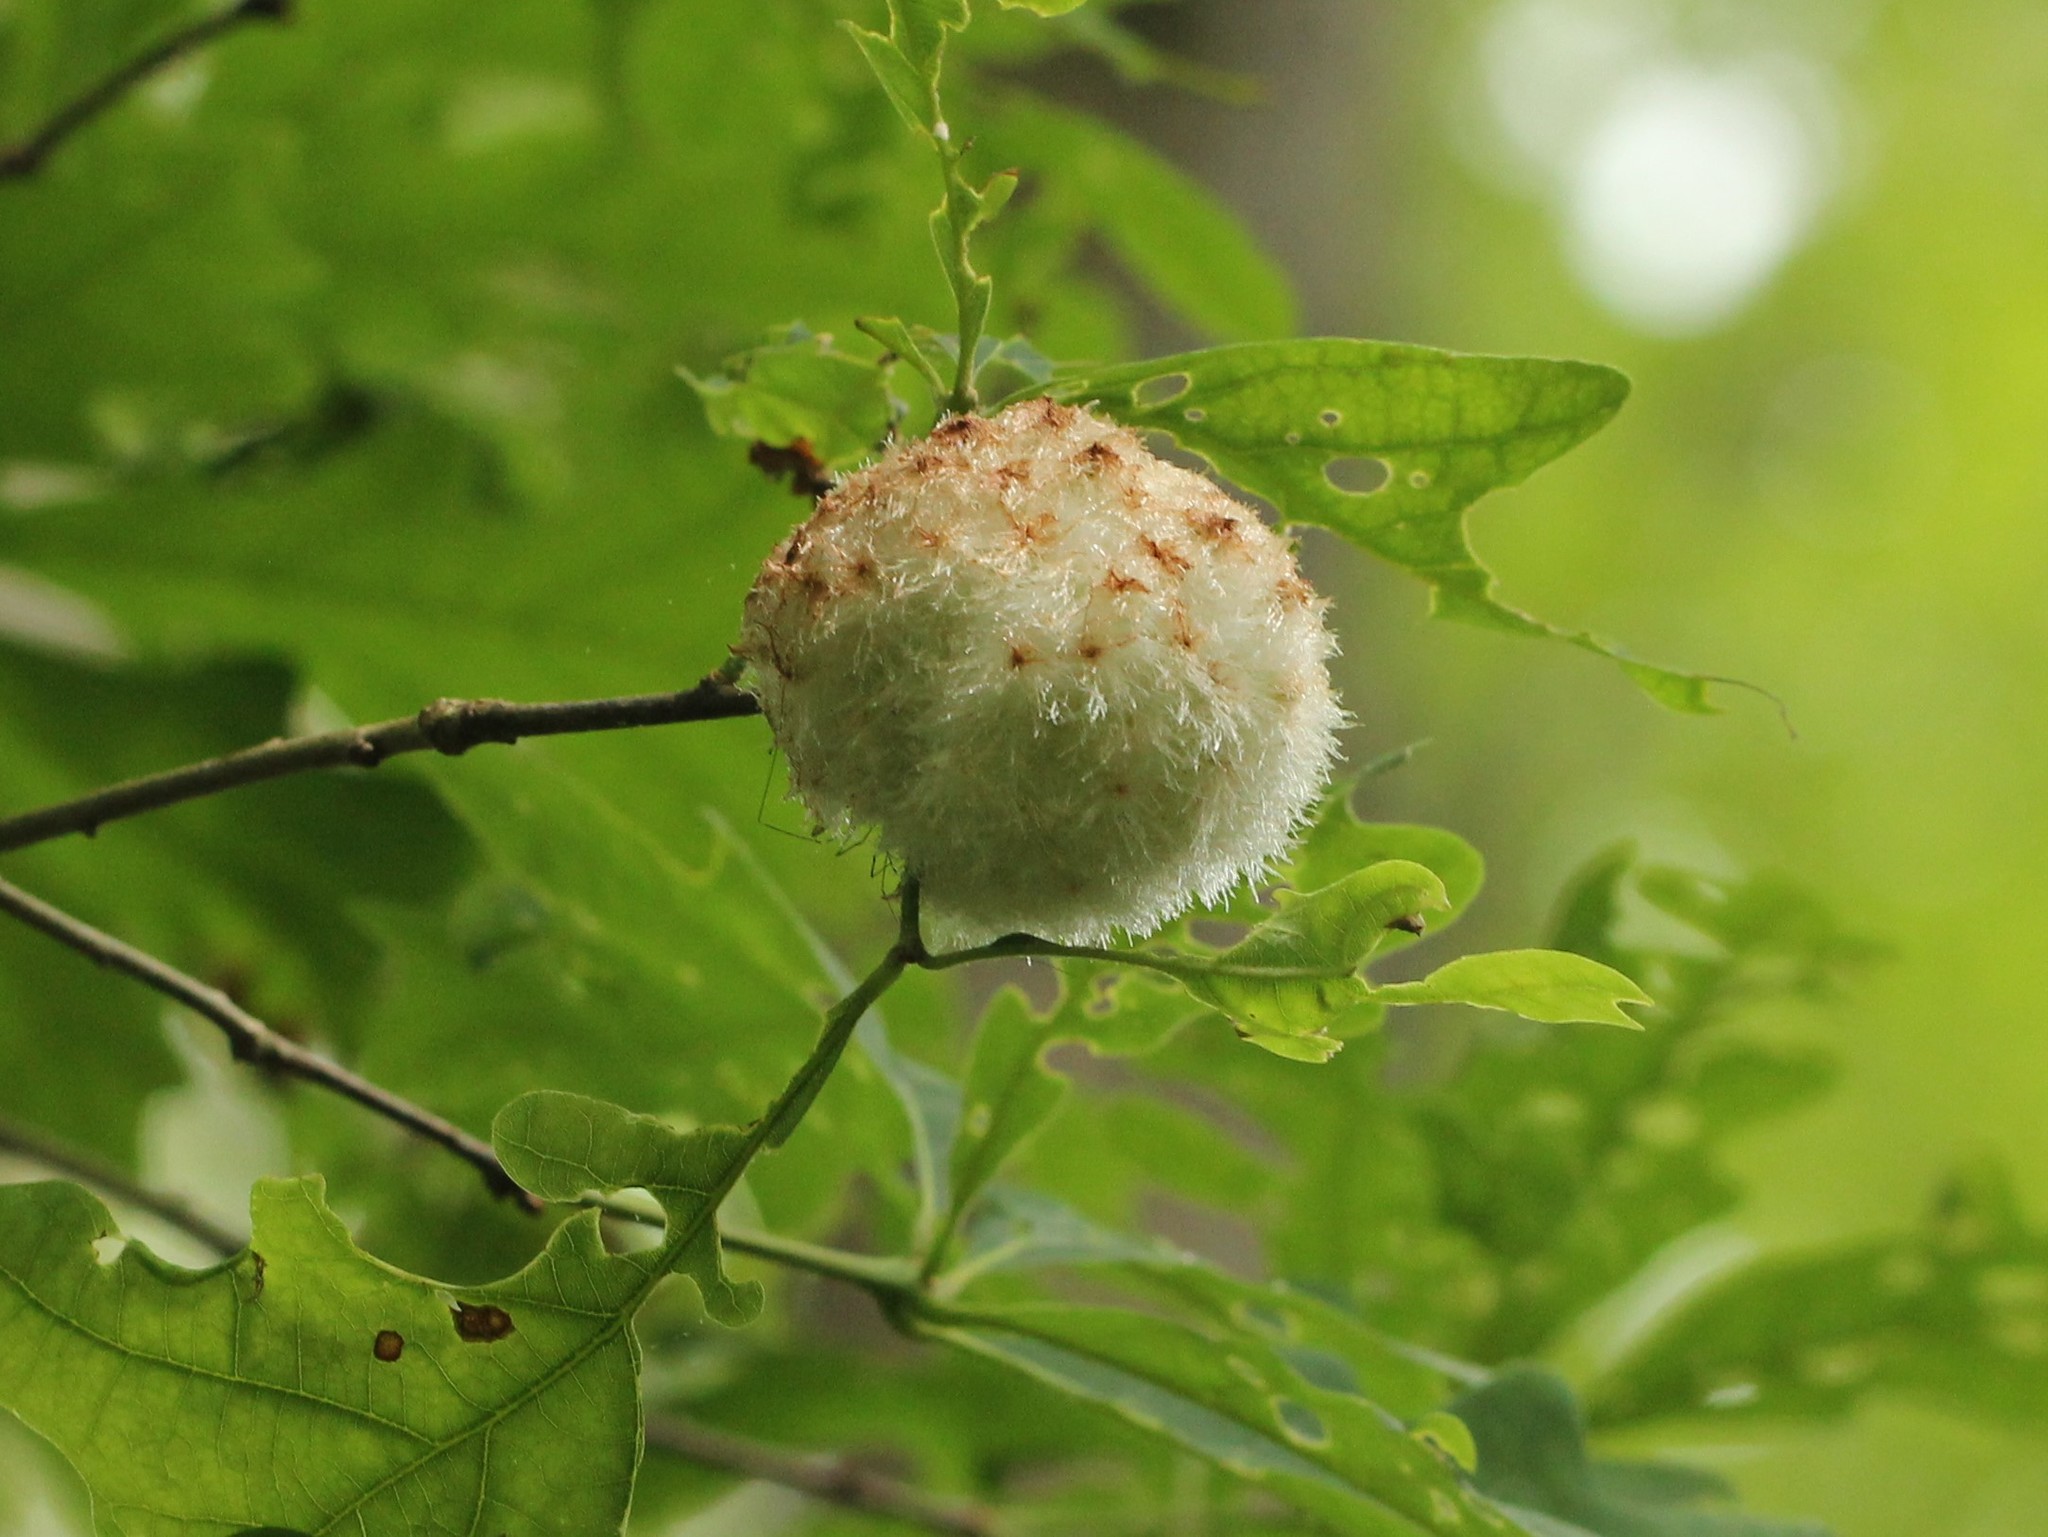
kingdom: Animalia
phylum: Arthropoda
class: Insecta
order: Hymenoptera
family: Cynipidae
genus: Callirhytis
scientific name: Callirhytis
